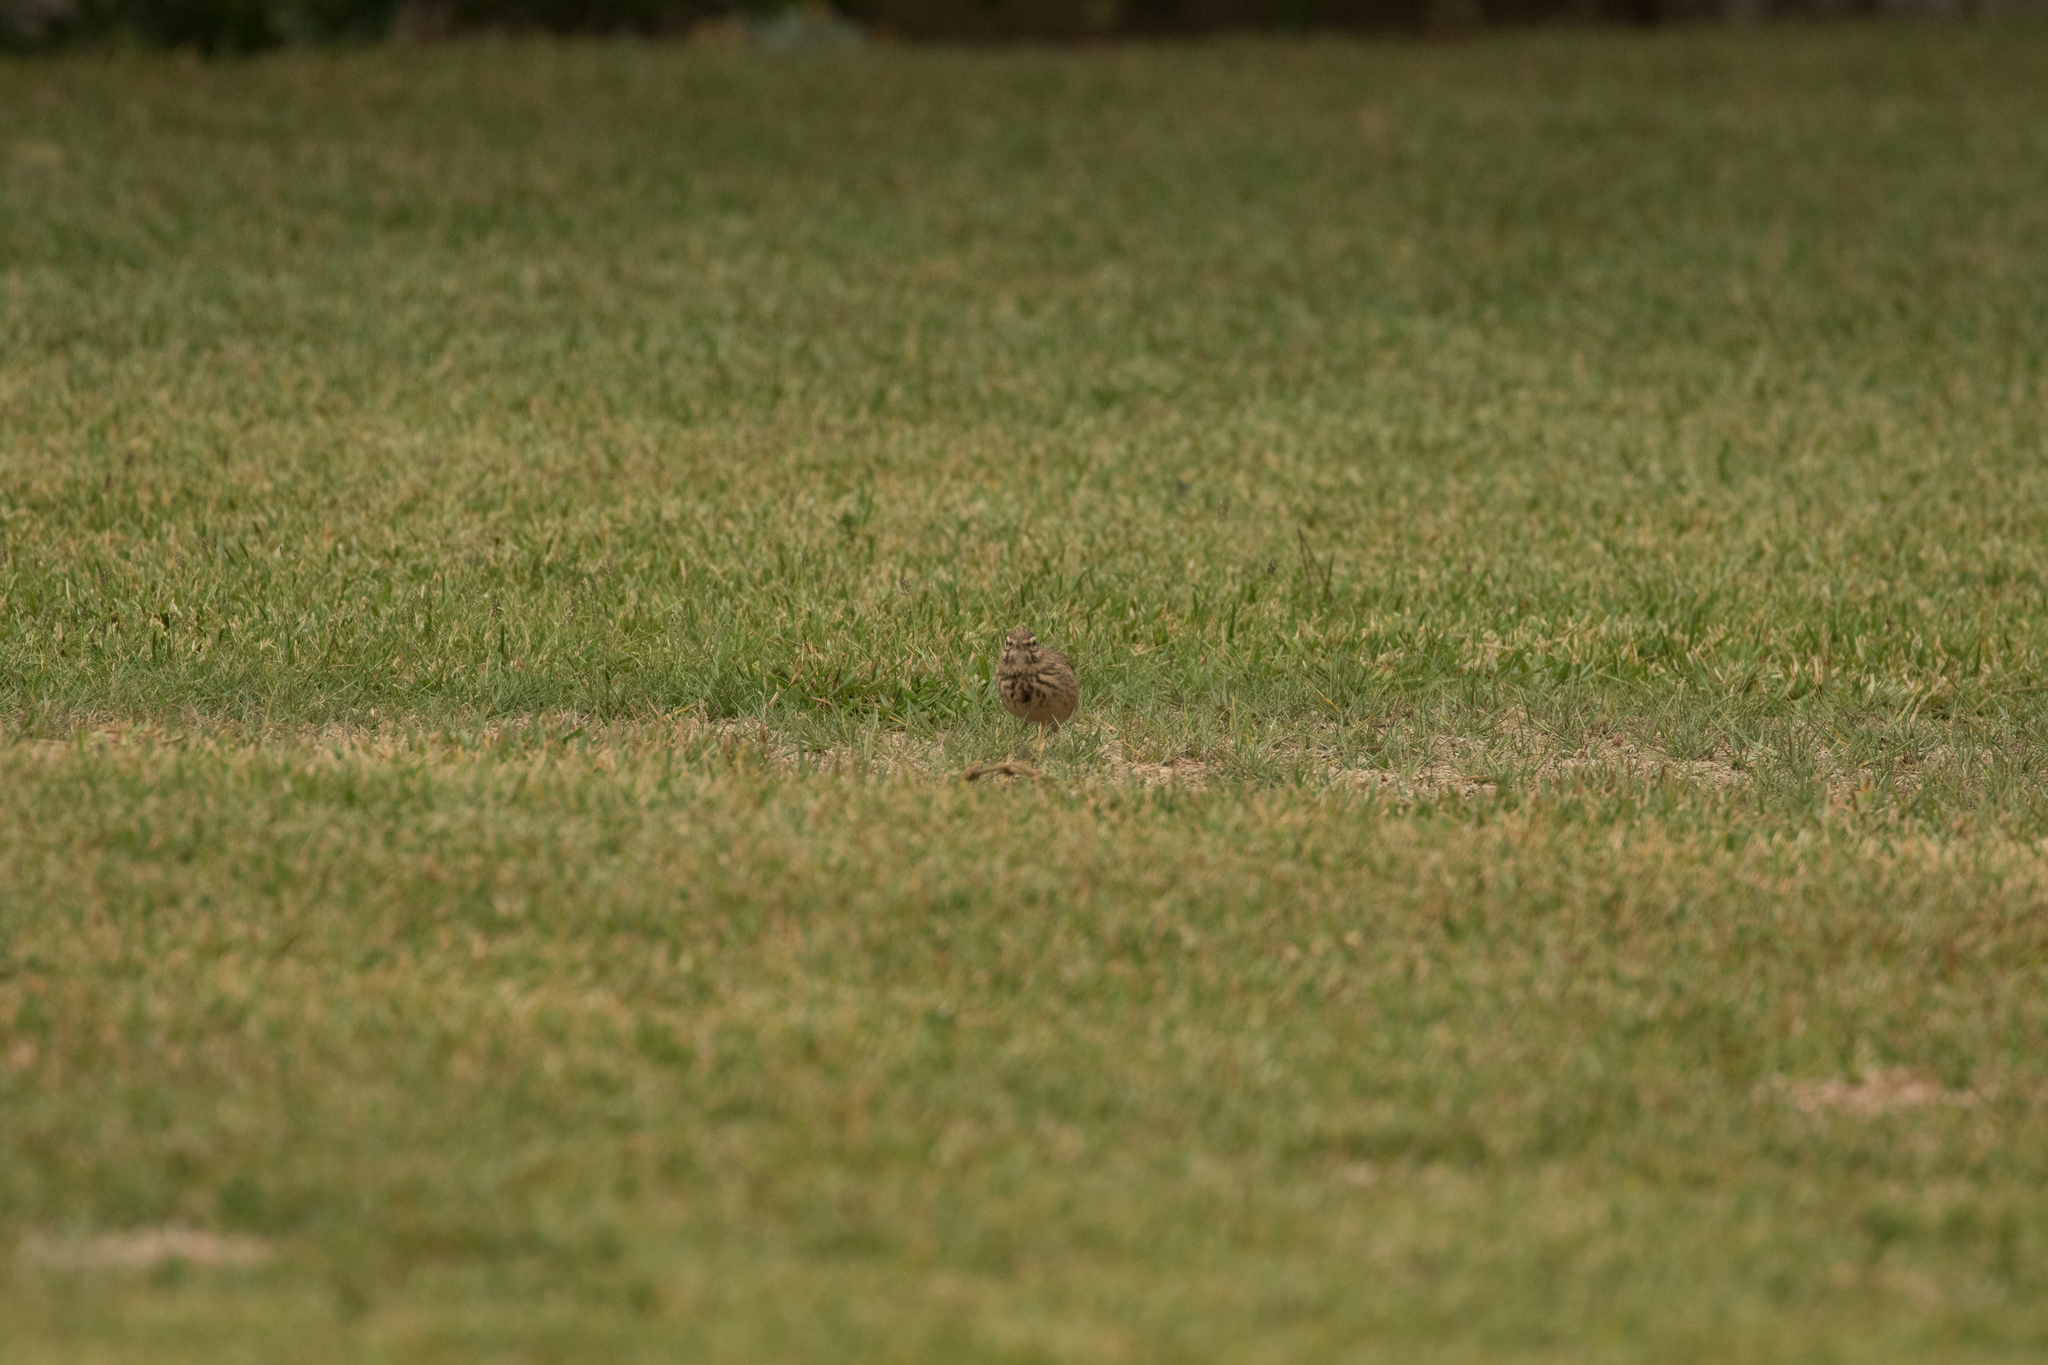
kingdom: Animalia
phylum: Chordata
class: Aves
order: Passeriformes
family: Alaudidae
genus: Galerida
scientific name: Galerida cristata
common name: Crested lark
